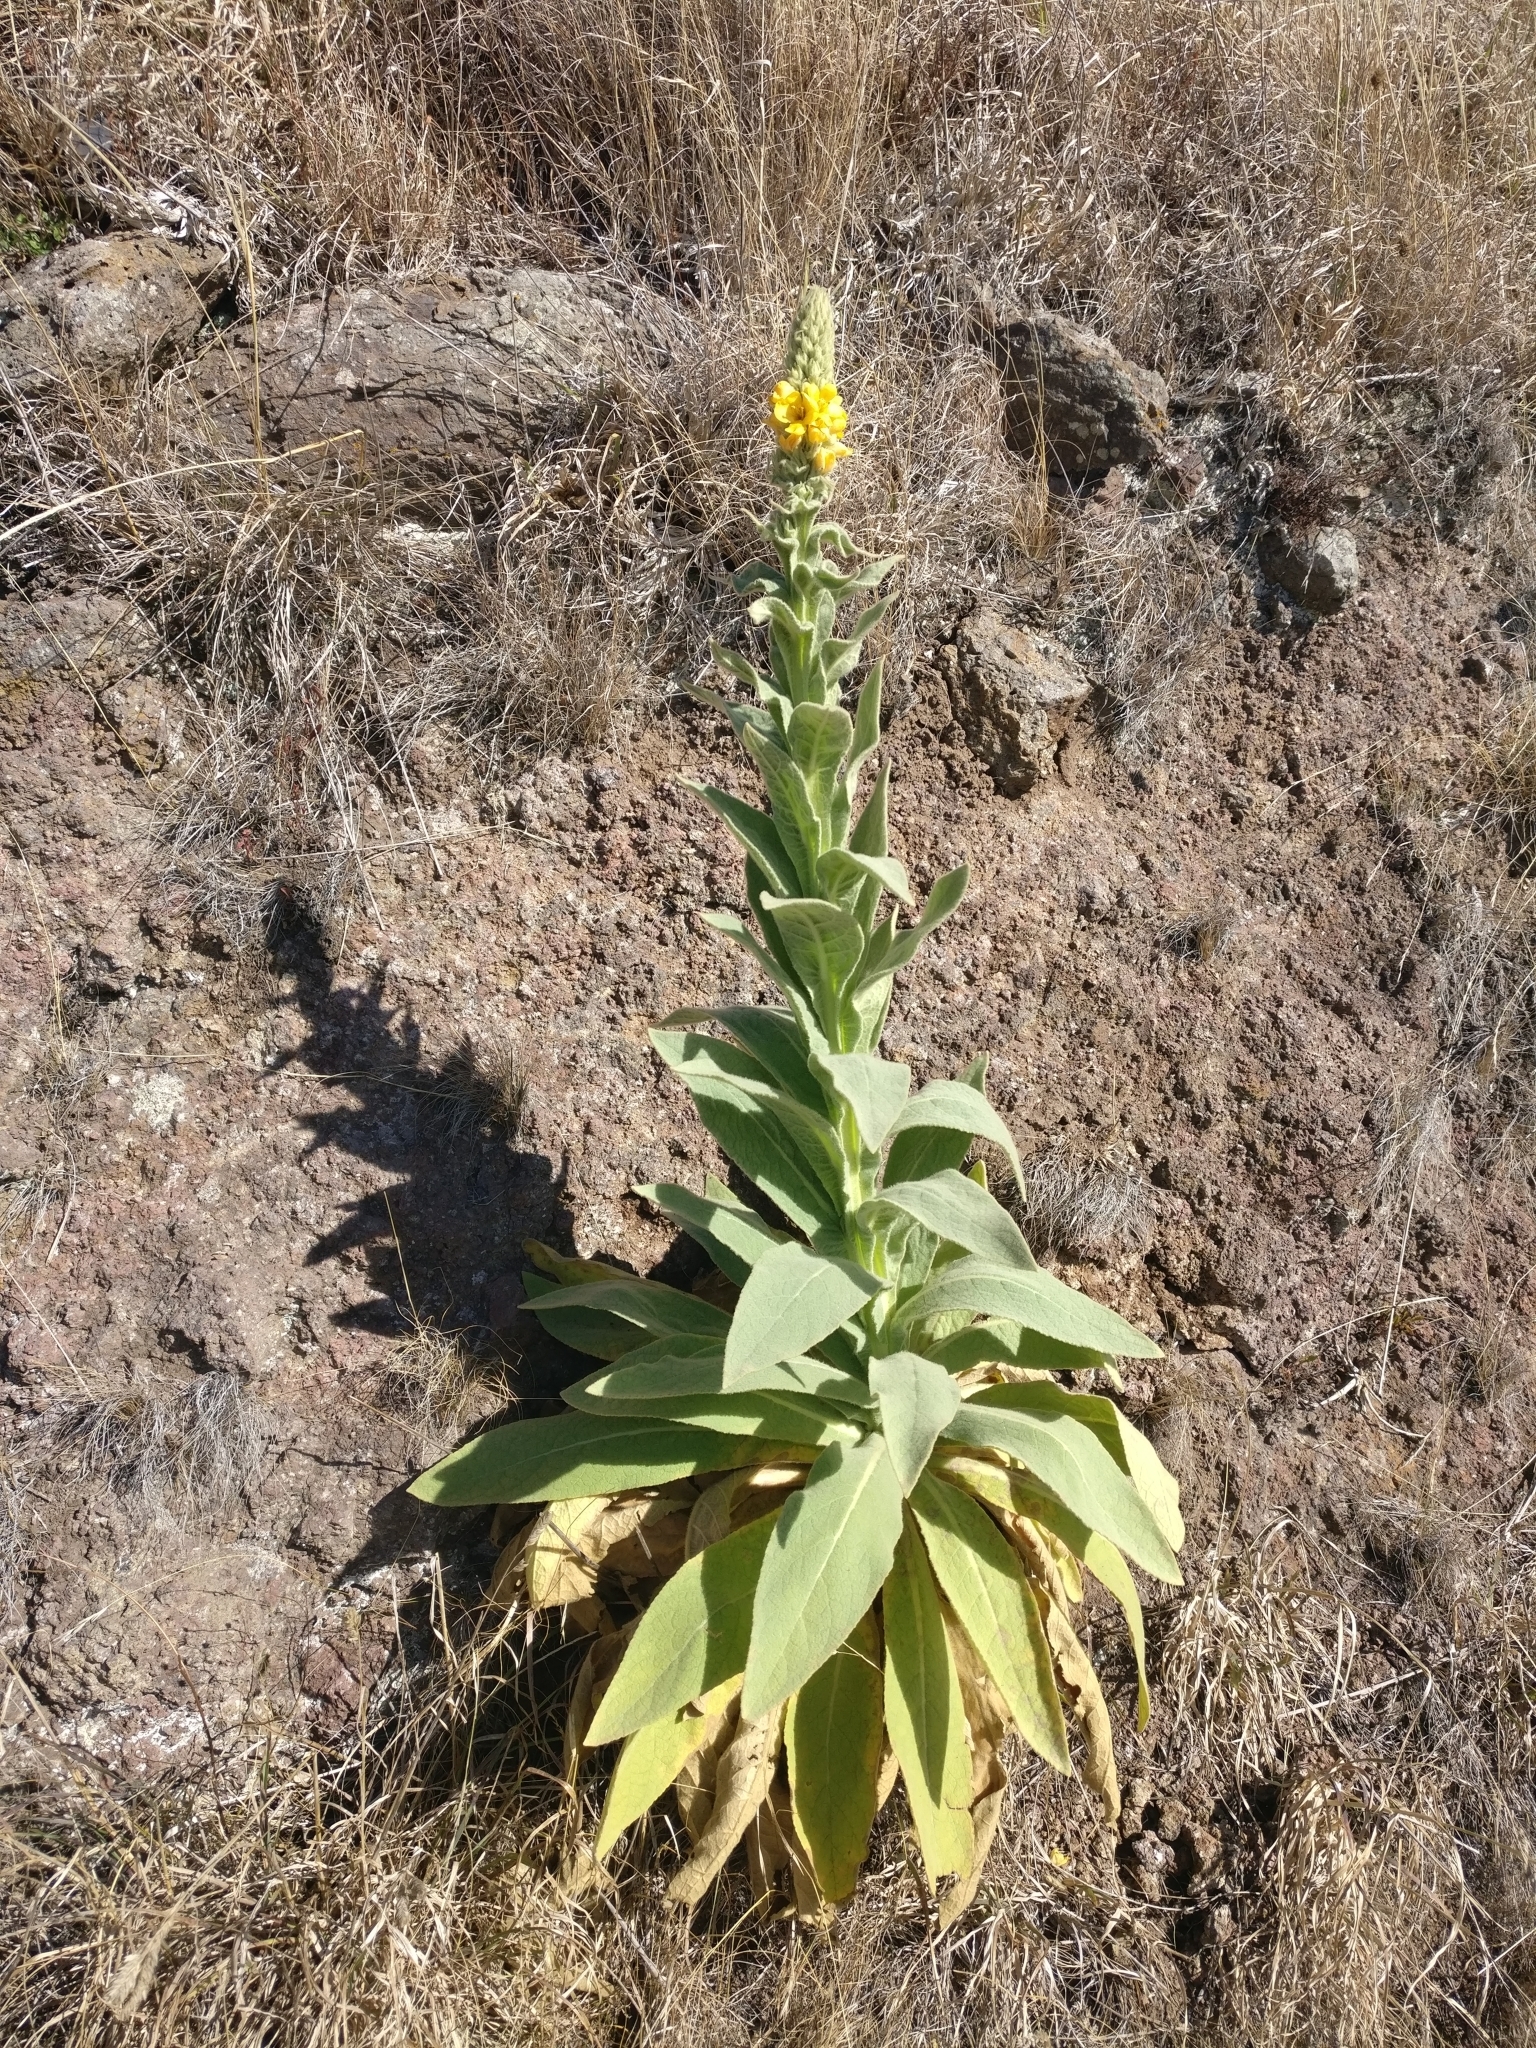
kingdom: Plantae
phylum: Tracheophyta
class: Magnoliopsida
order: Lamiales
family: Scrophulariaceae
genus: Verbascum
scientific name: Verbascum thapsus
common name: Common mullein
